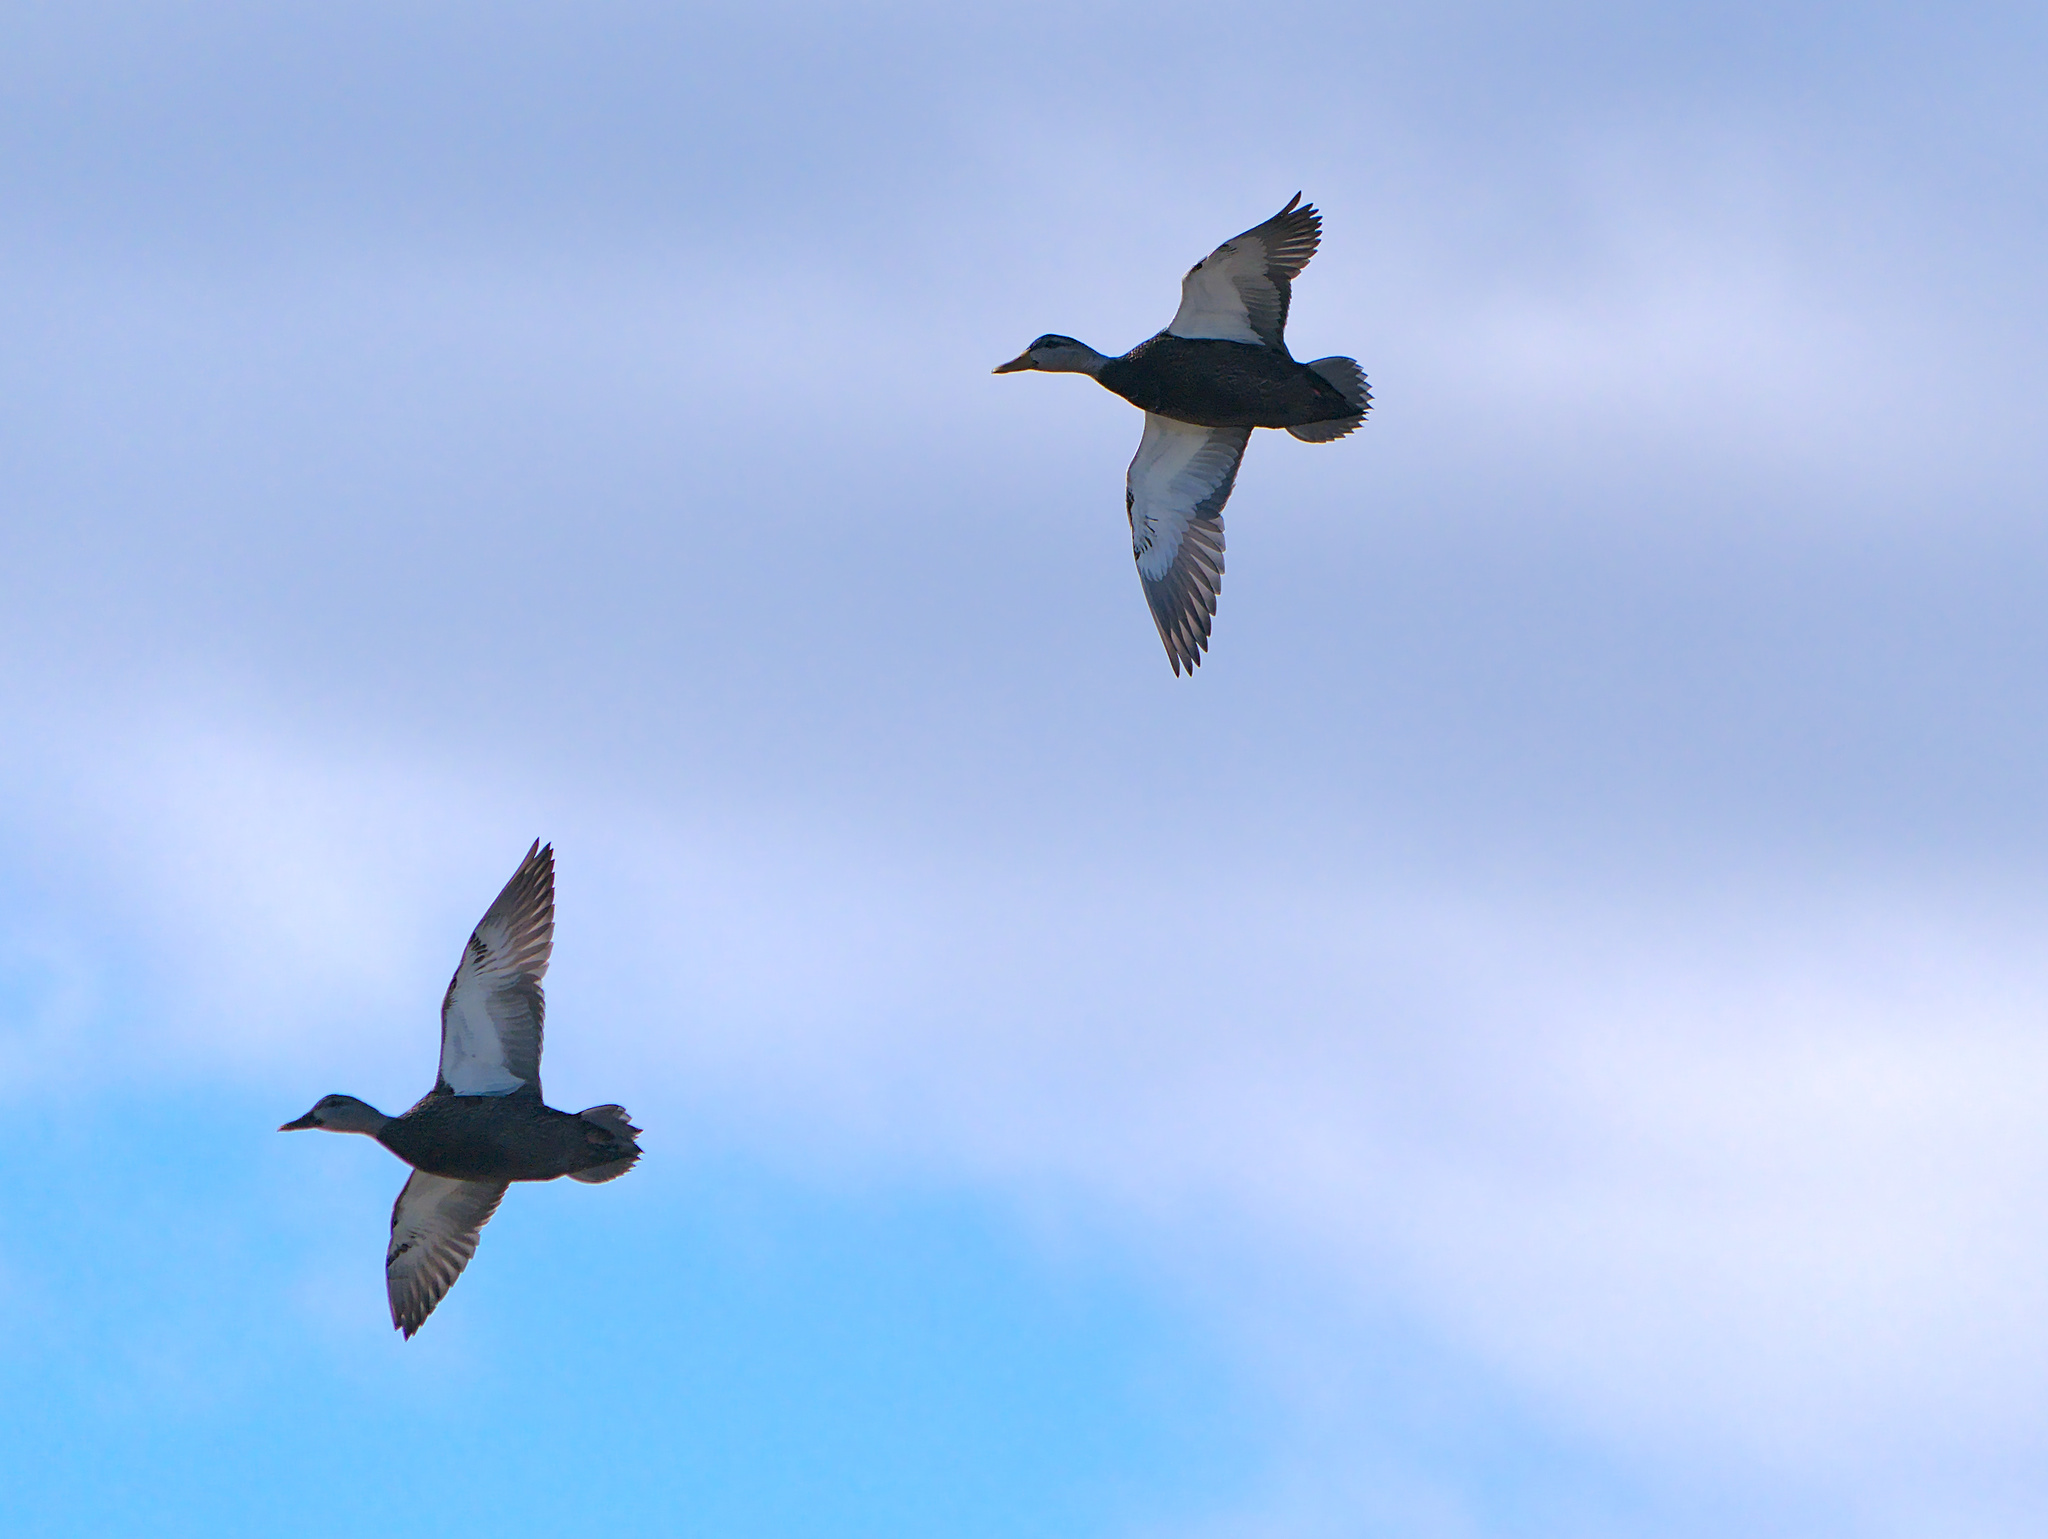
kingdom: Animalia
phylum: Chordata
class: Aves
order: Anseriformes
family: Anatidae
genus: Anas
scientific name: Anas rubripes
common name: American black duck
